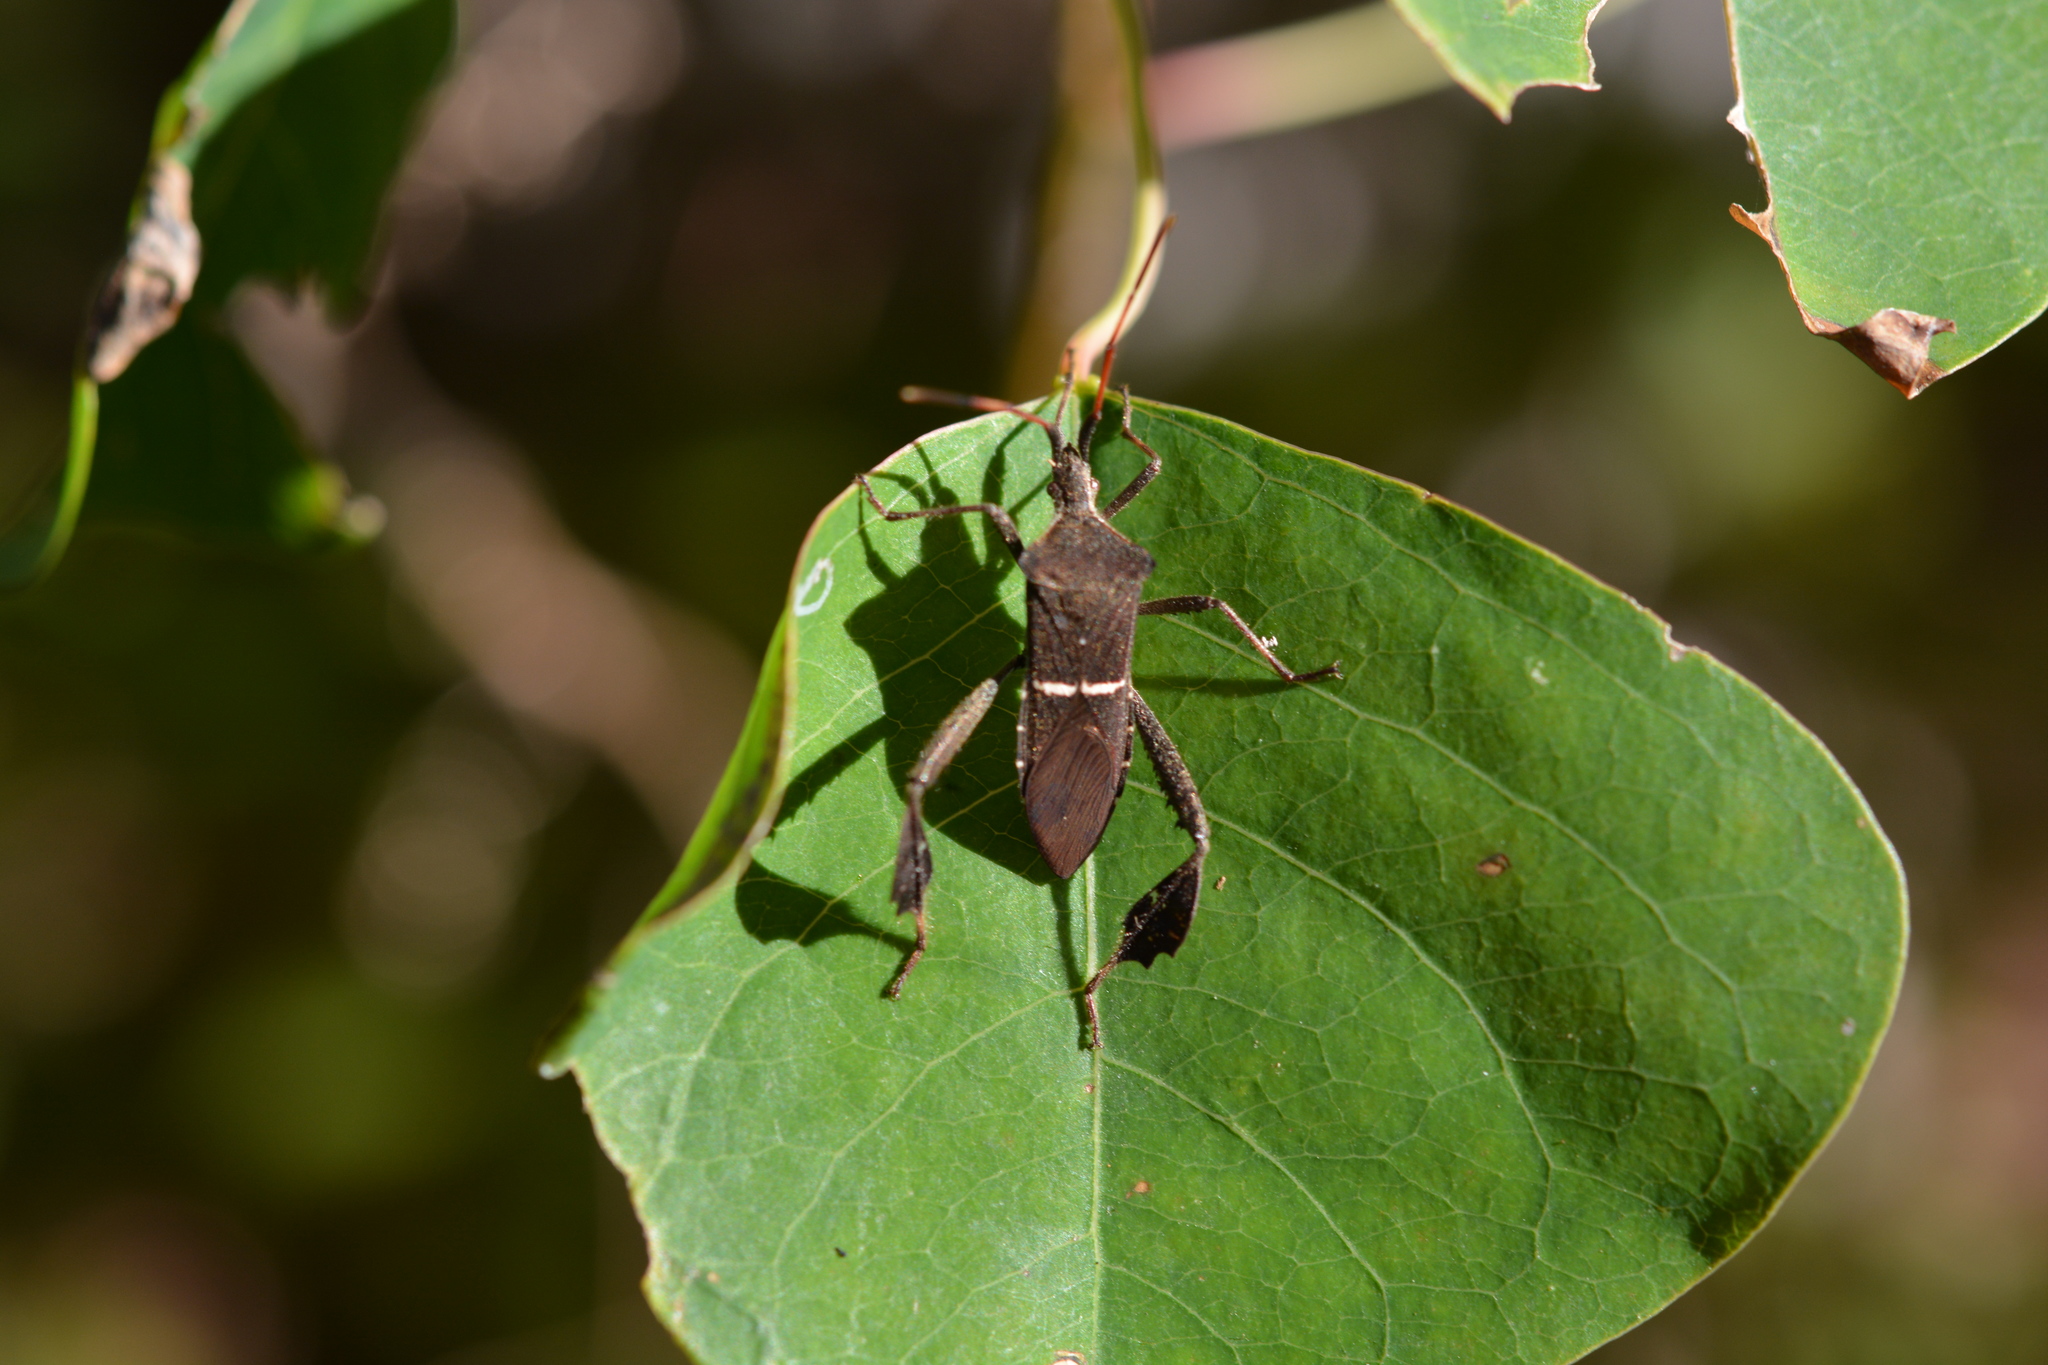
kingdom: Animalia
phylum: Arthropoda
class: Insecta
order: Hemiptera
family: Coreidae
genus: Leptoglossus
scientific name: Leptoglossus phyllopus
